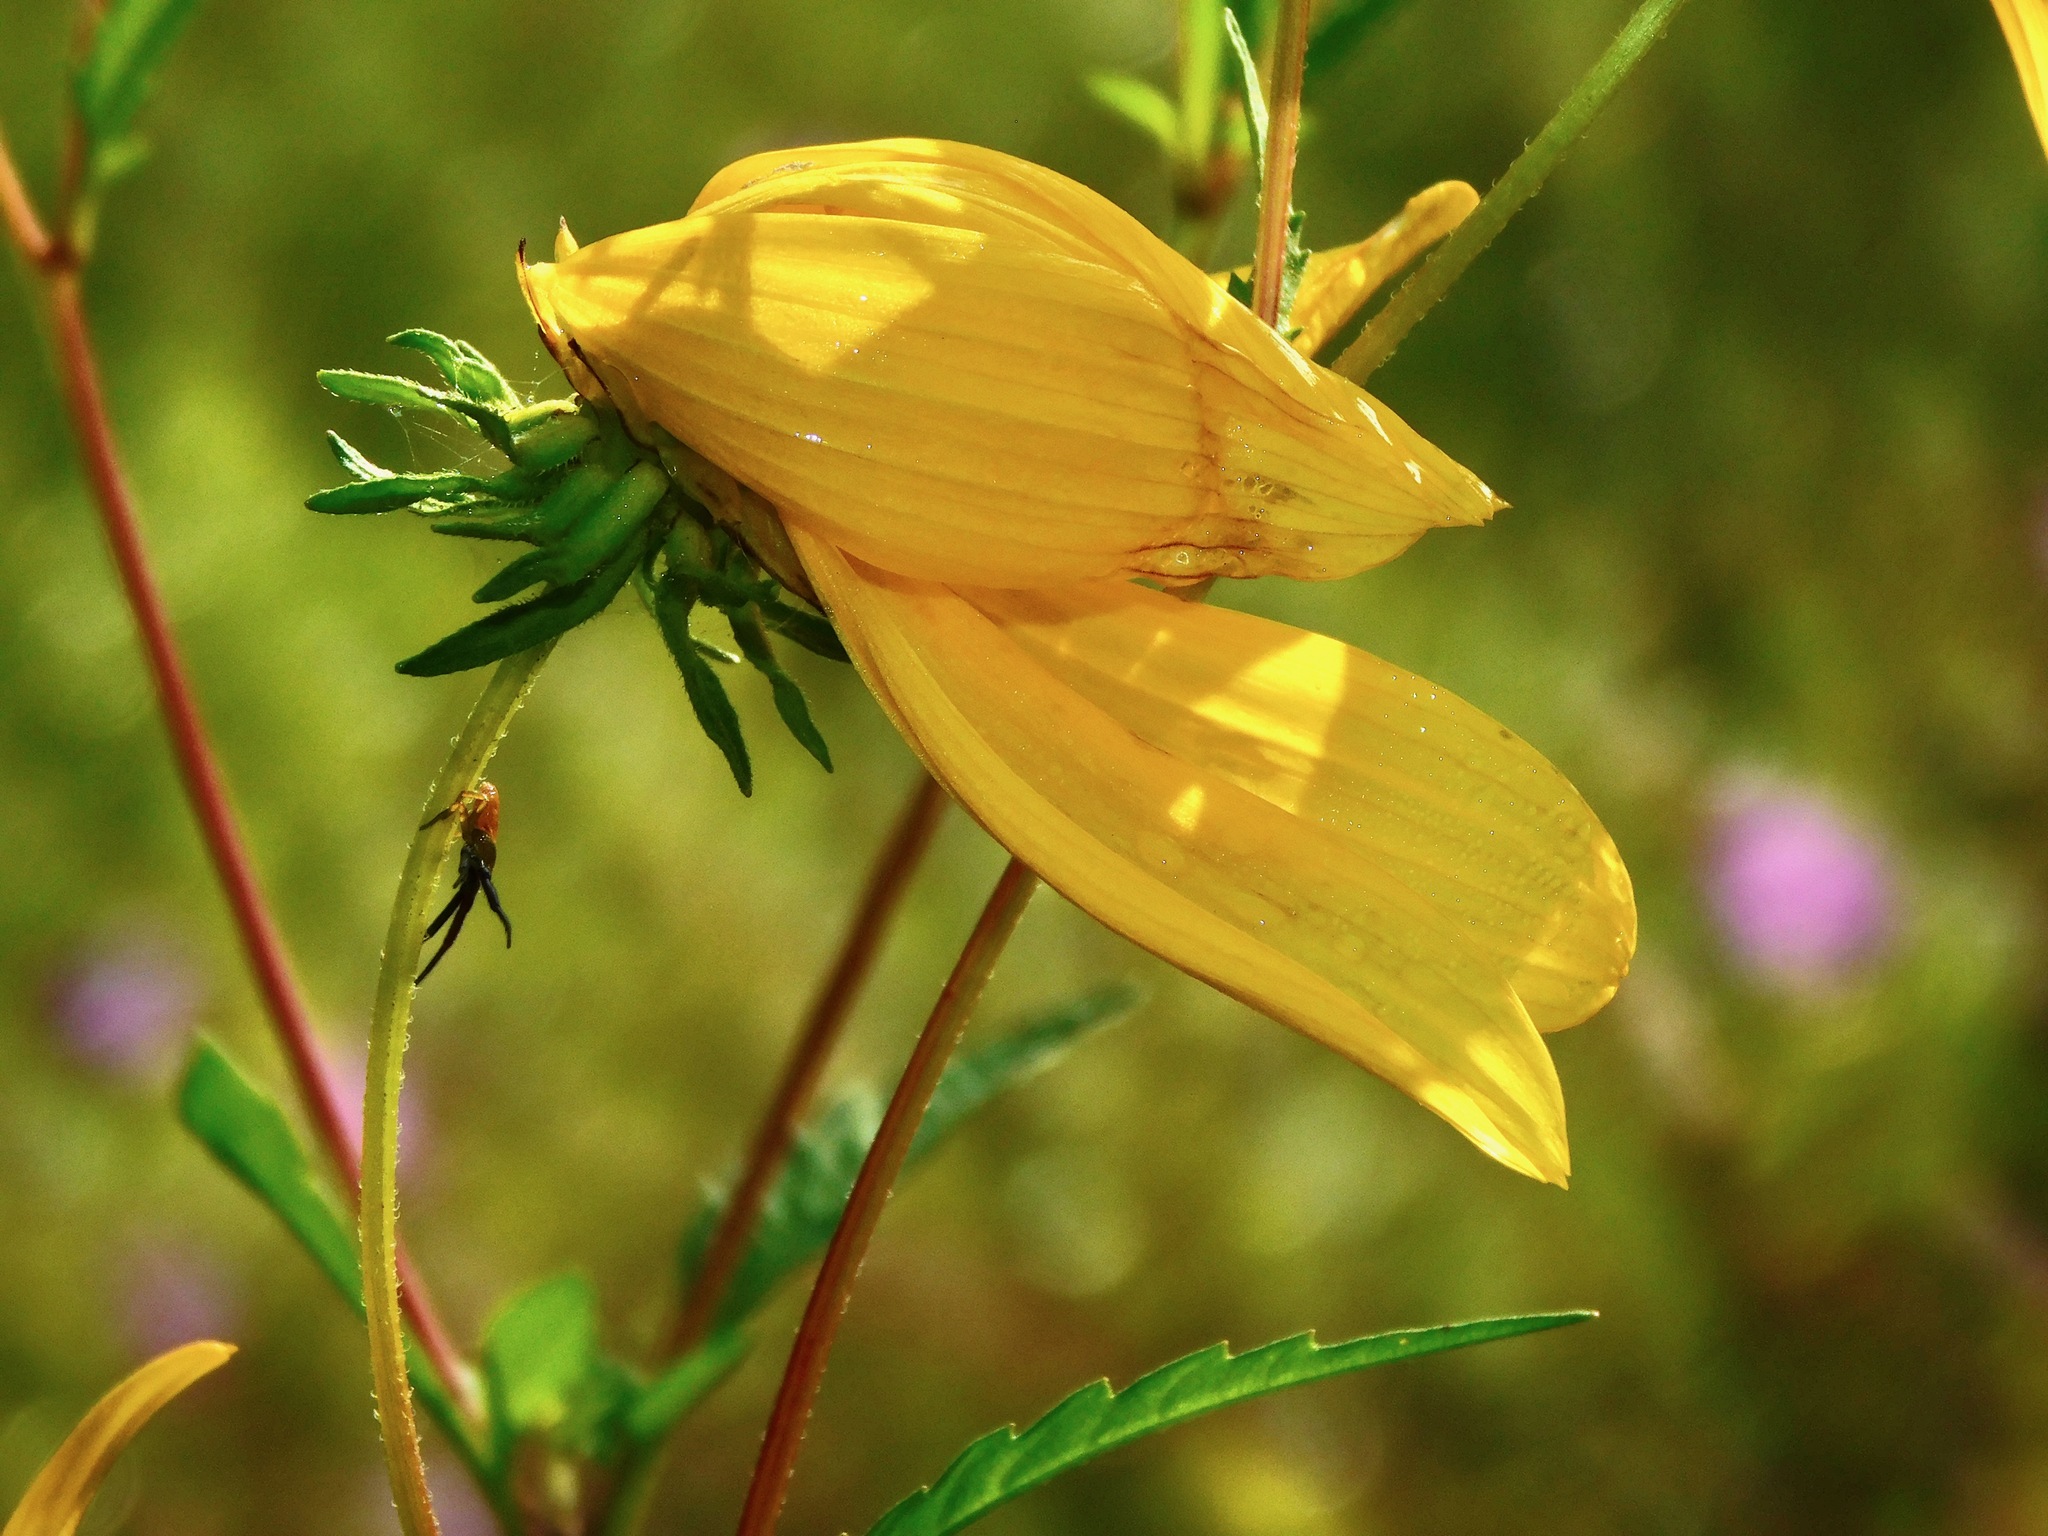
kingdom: Plantae
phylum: Tracheophyta
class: Magnoliopsida
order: Asterales
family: Asteraceae
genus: Bidens
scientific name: Bidens polylepis
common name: Awnless beggarticks
